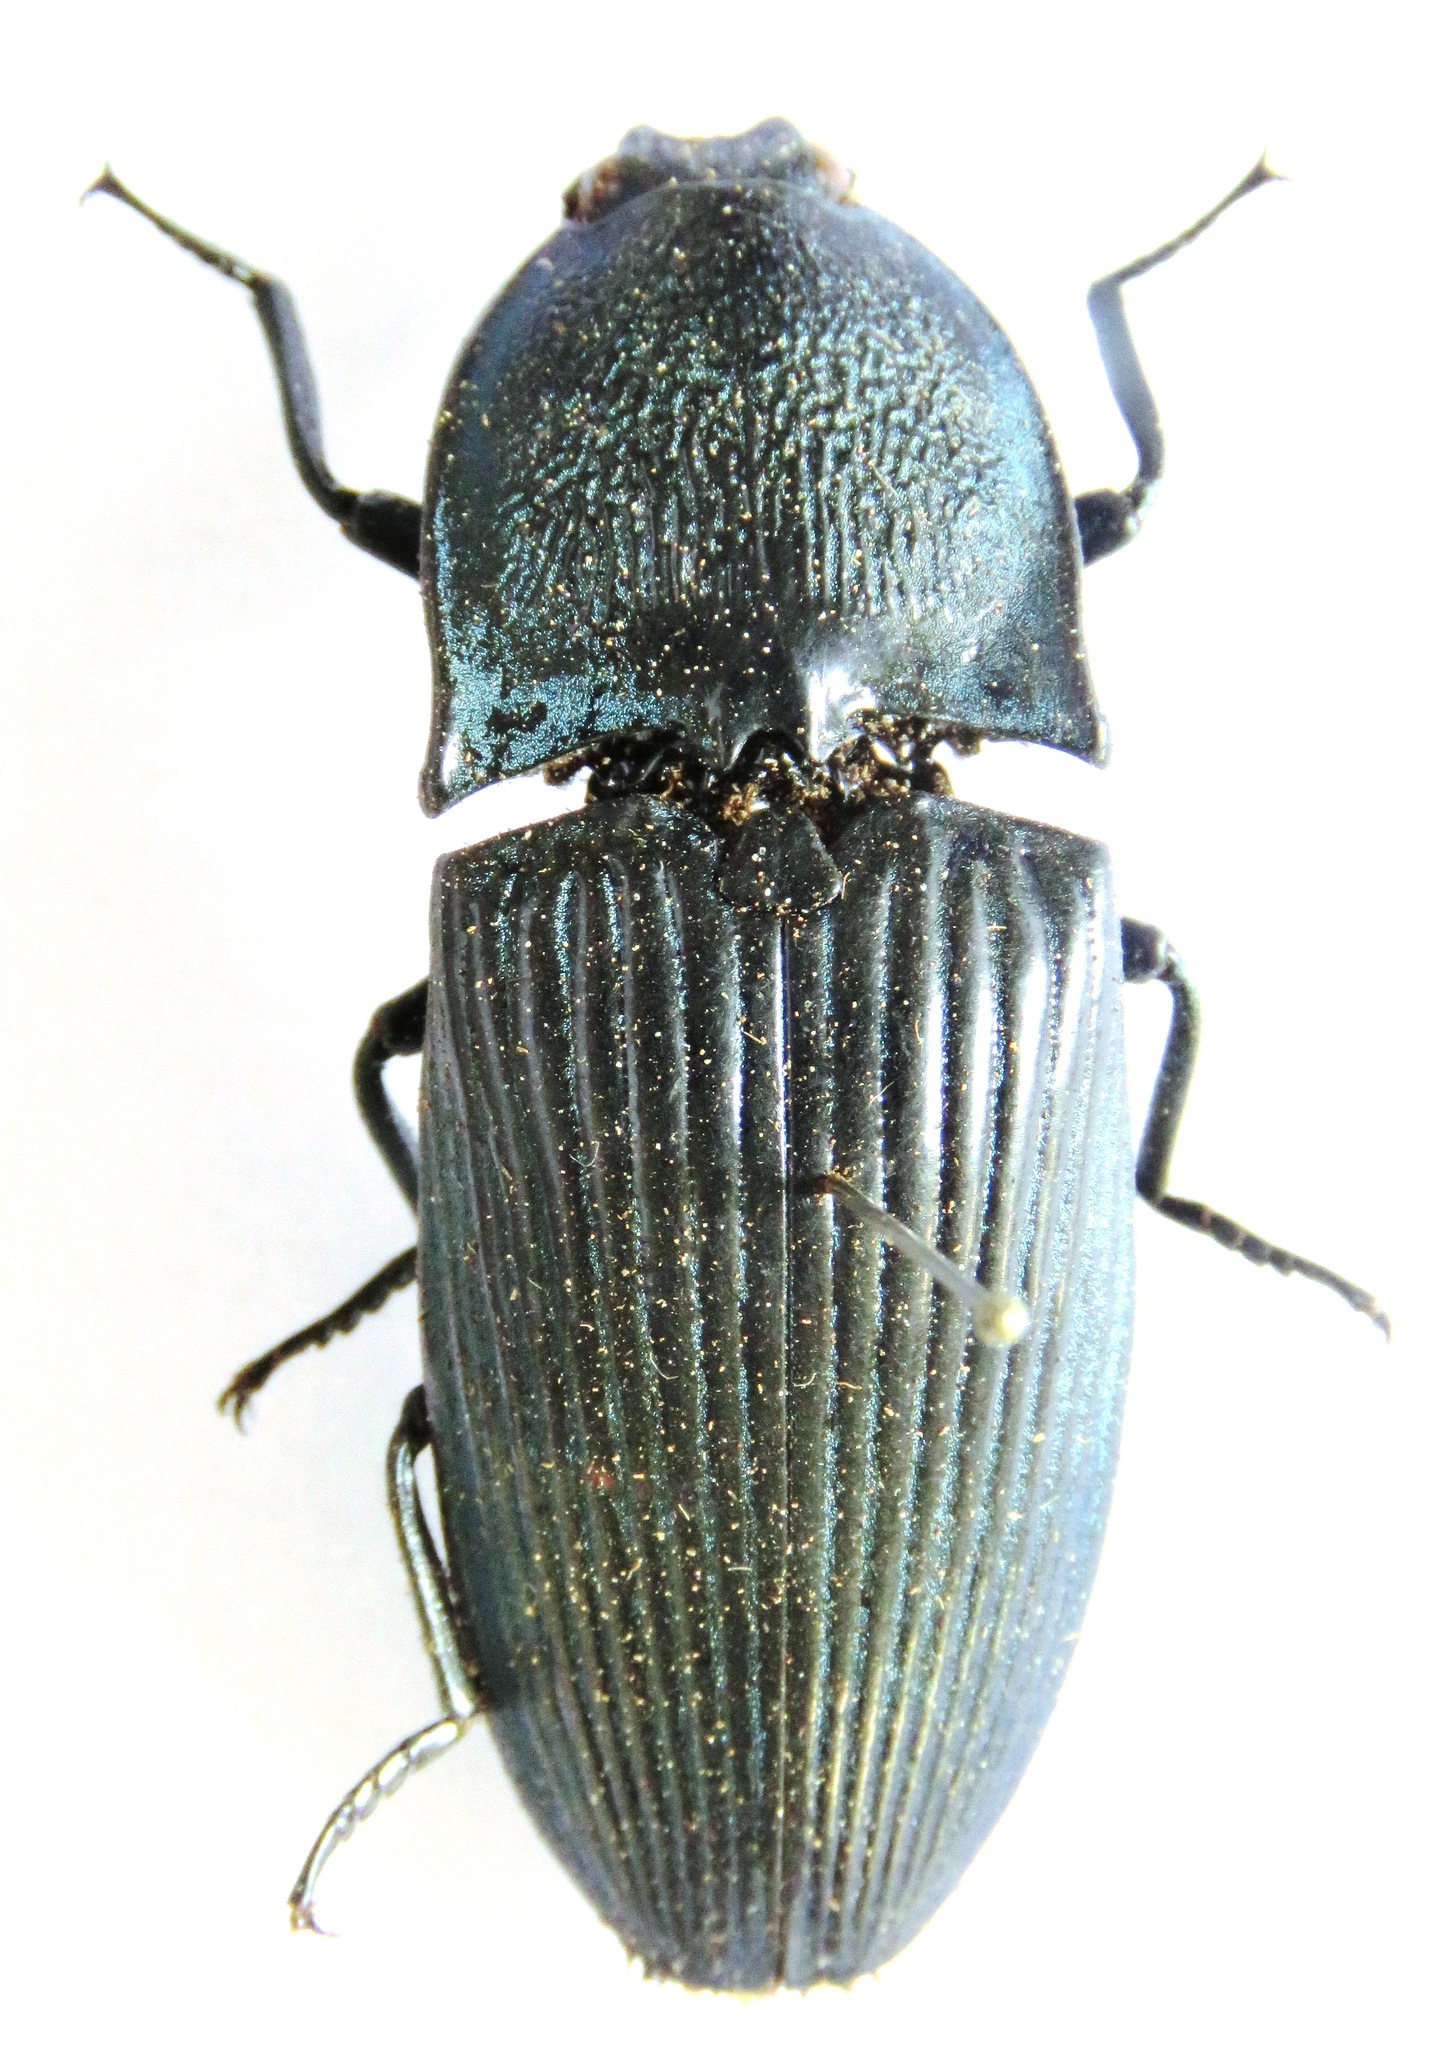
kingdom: Animalia
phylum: Arthropoda
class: Insecta
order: Coleoptera
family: Elateridae
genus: Chalcolepidius
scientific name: Chalcolepidius lacordairei
